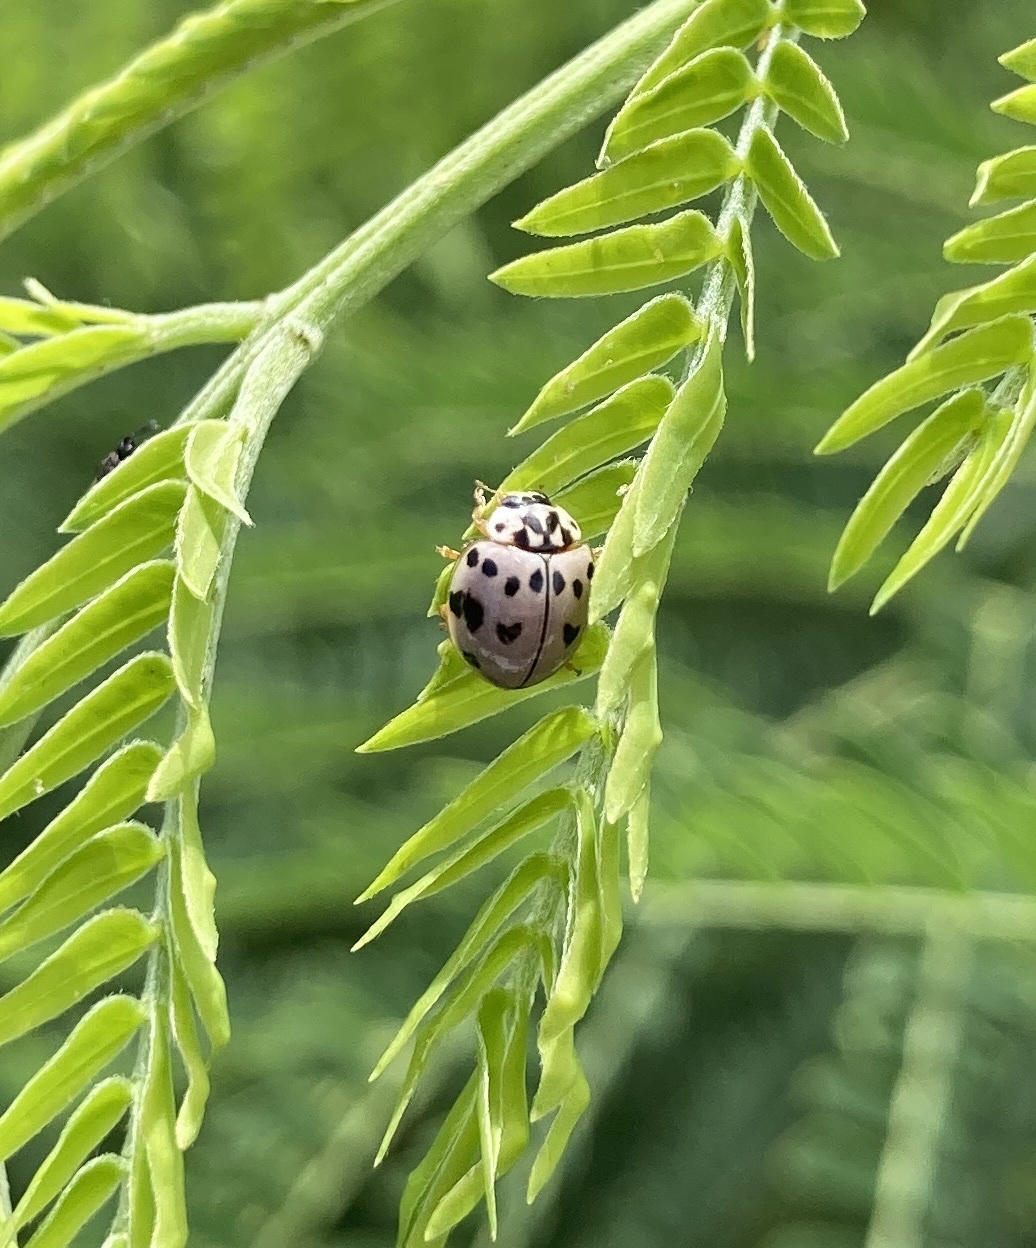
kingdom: Animalia
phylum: Arthropoda
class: Insecta
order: Coleoptera
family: Coccinellidae
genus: Olla
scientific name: Olla v-nigrum
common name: Ashy gray lady beetle
